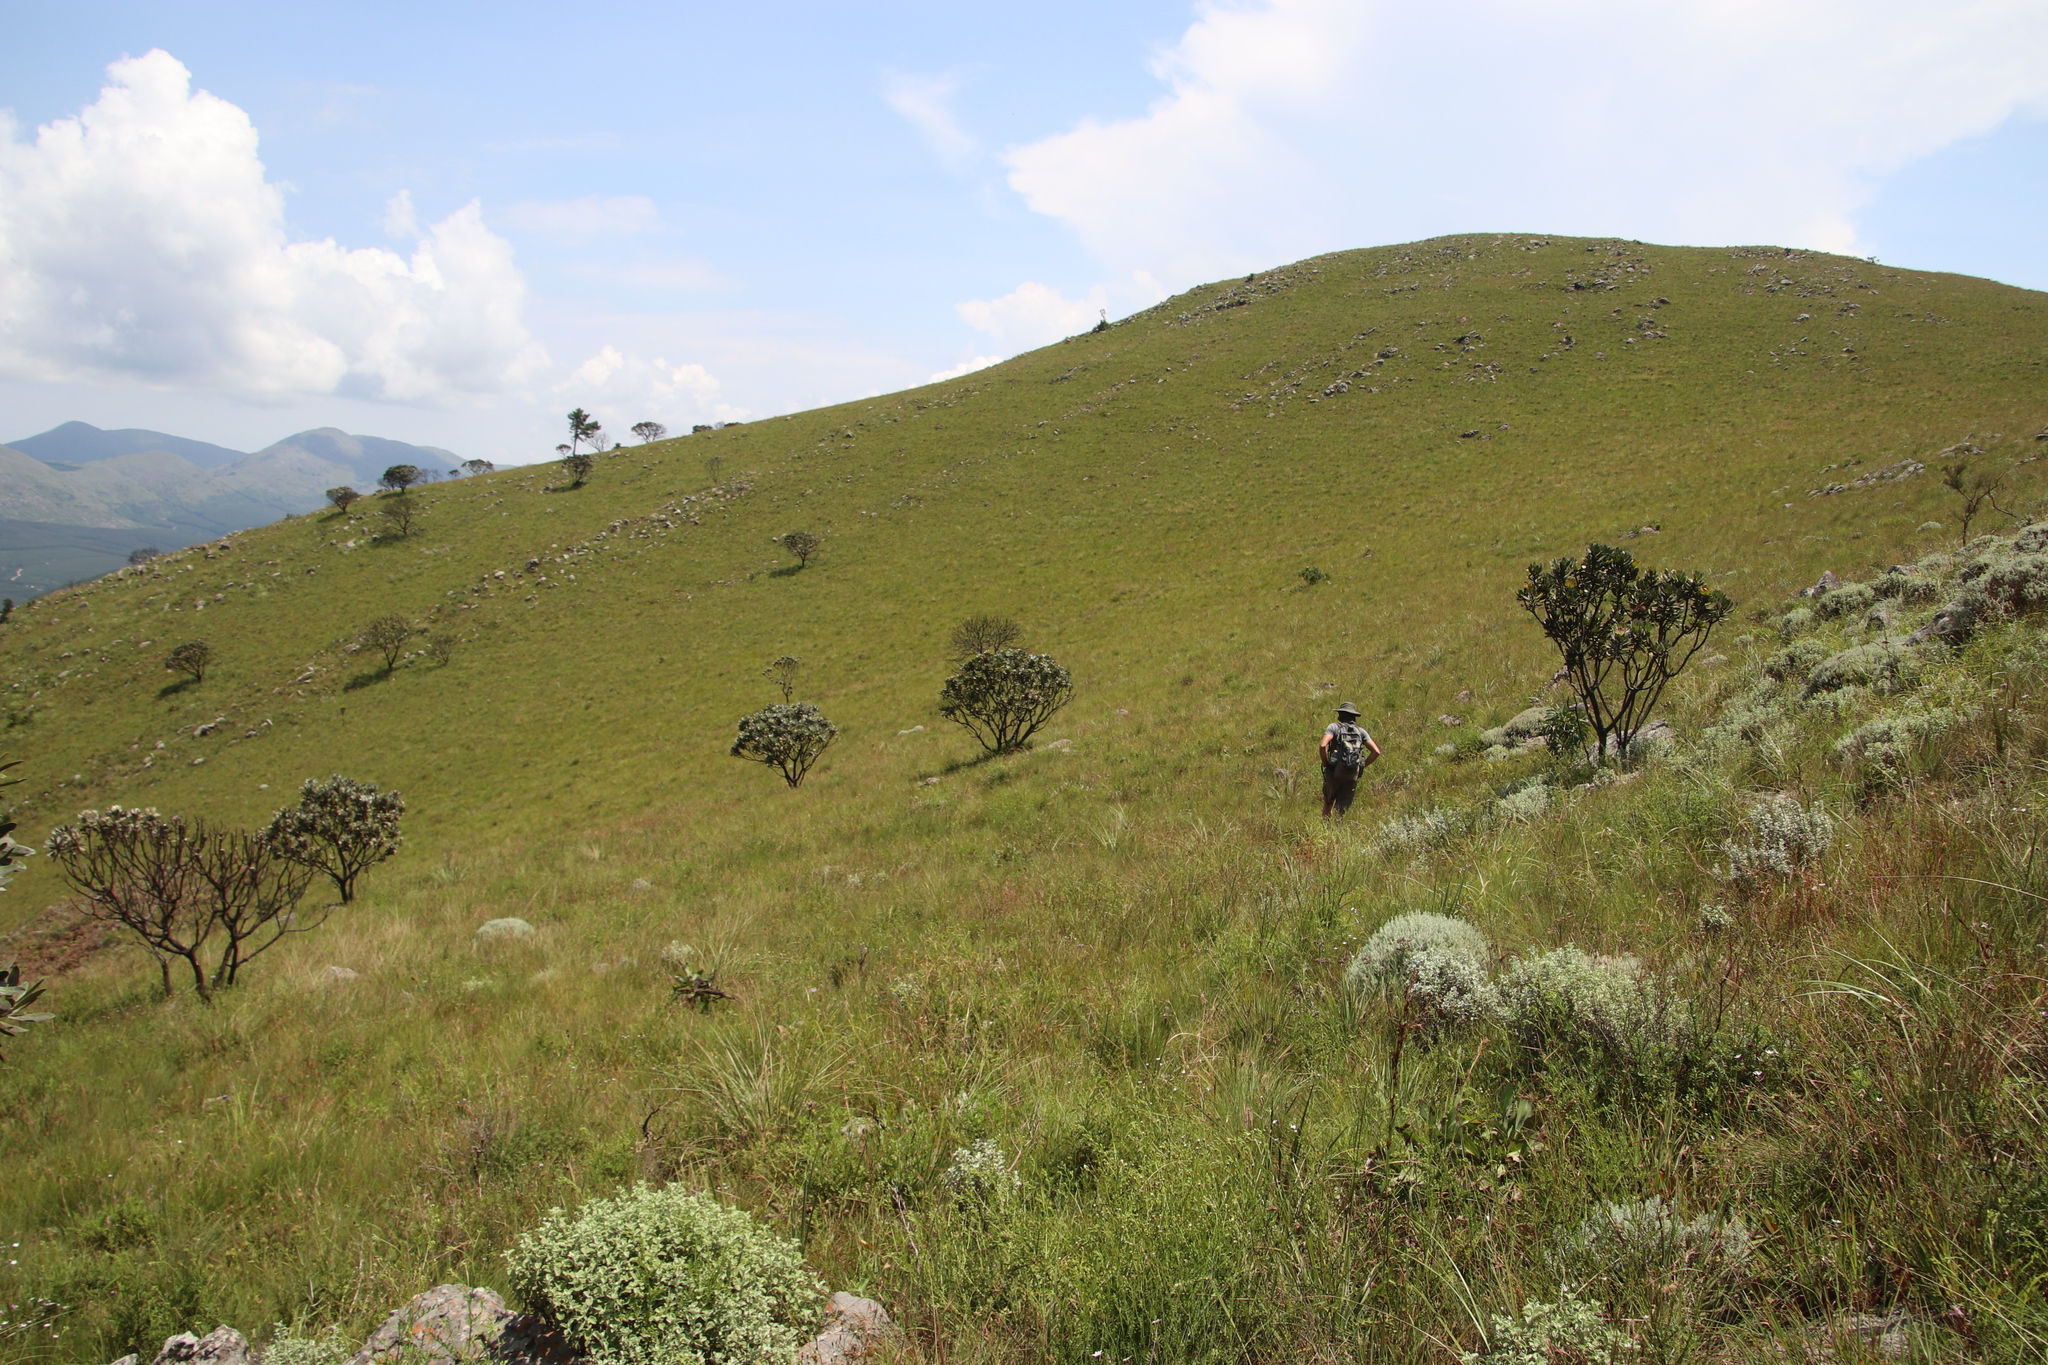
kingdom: Plantae
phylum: Tracheophyta
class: Magnoliopsida
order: Proteales
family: Proteaceae
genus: Protea
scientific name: Protea roupelliae
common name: Silver sugarbush
